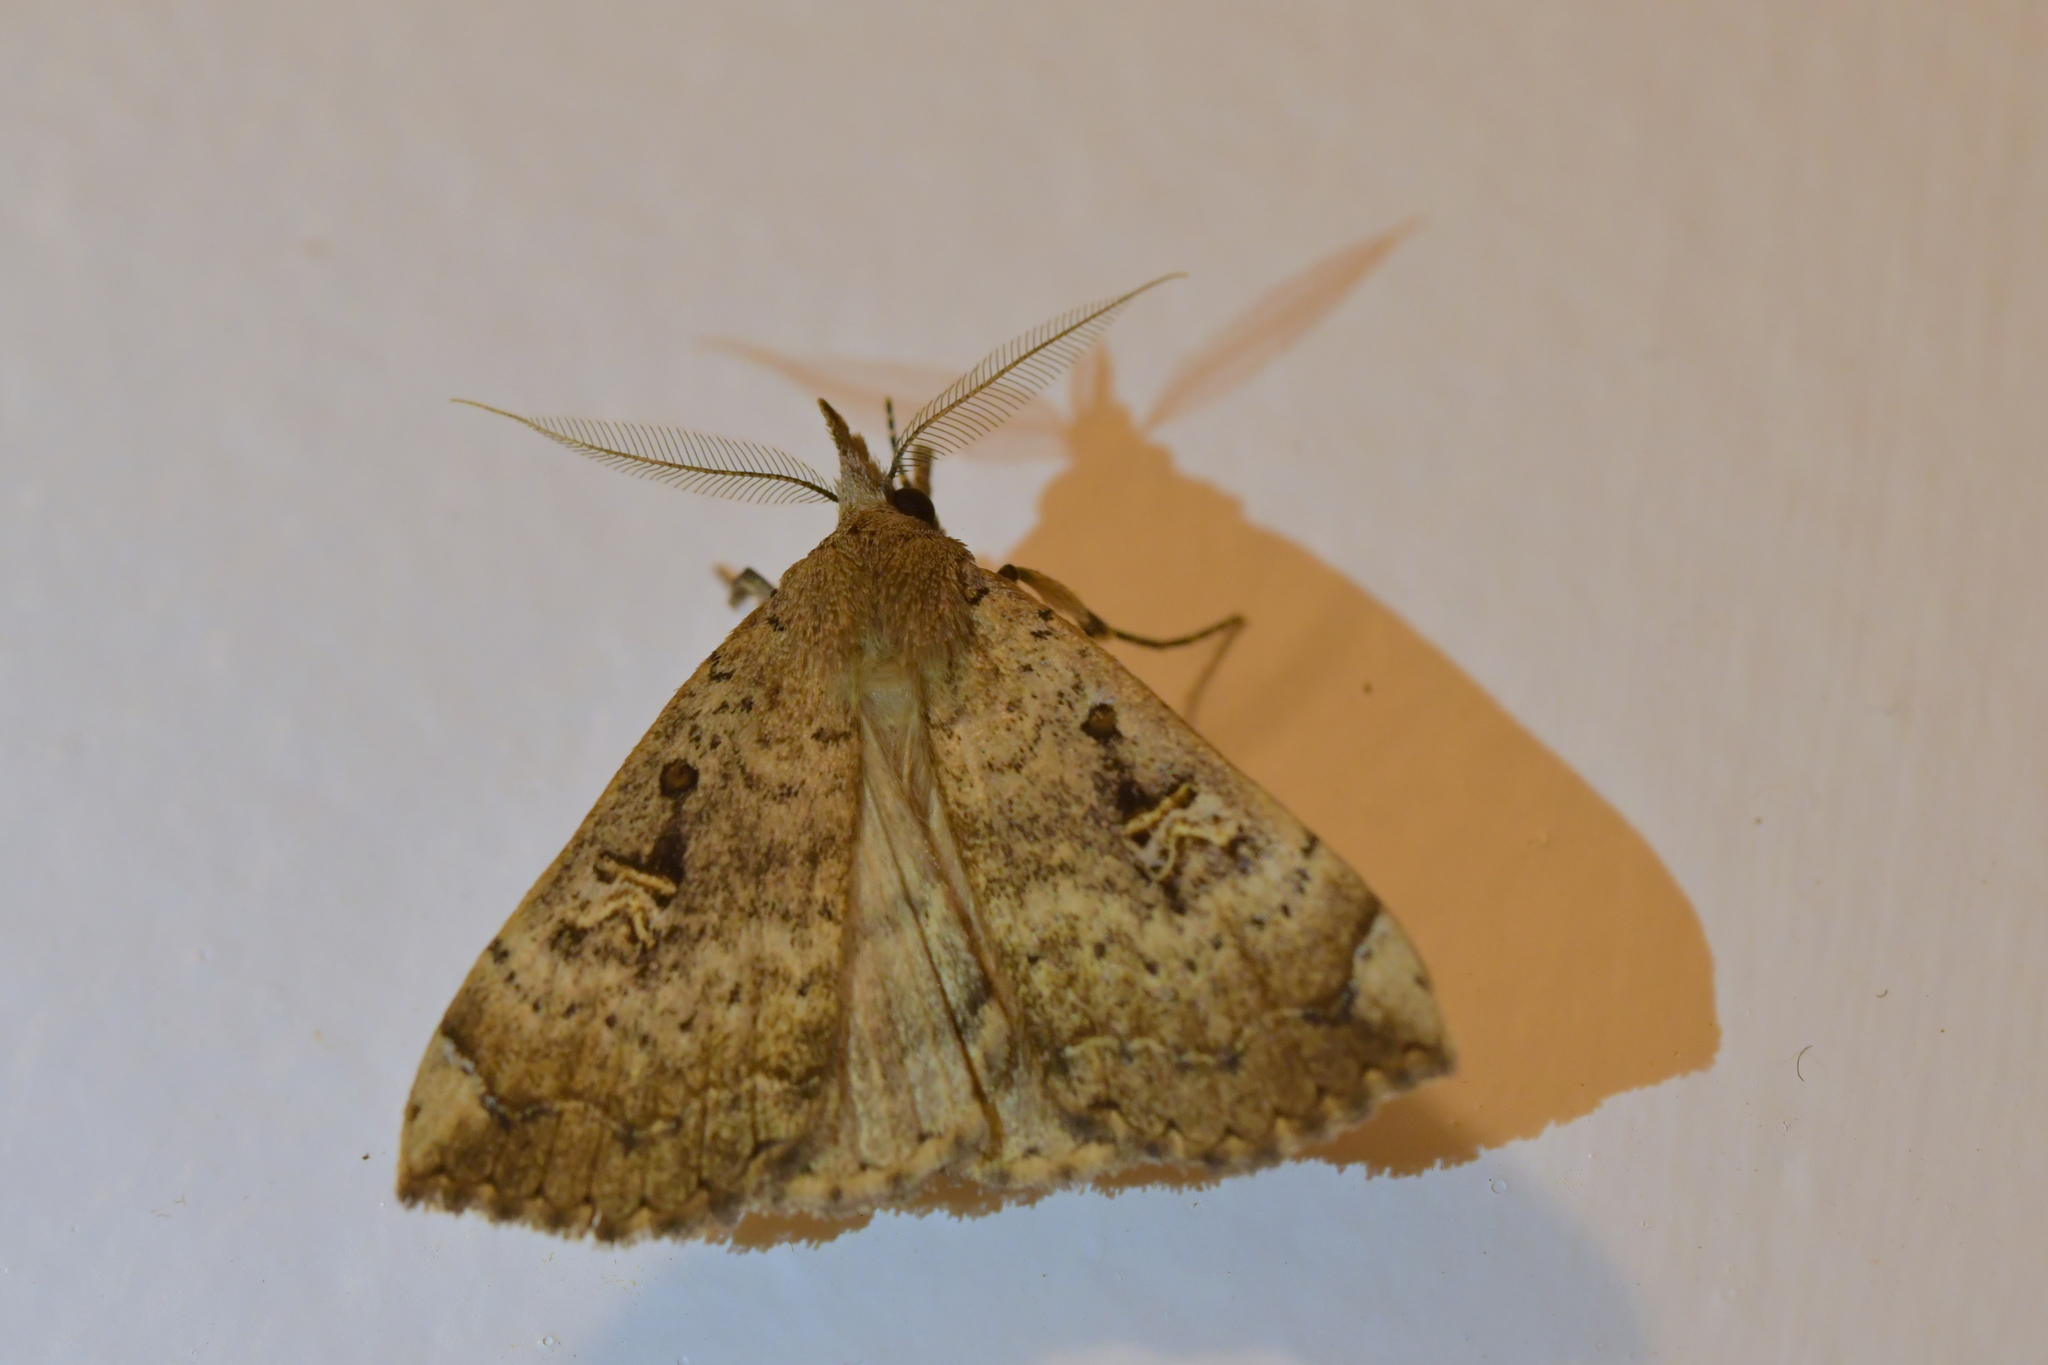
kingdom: Animalia
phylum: Arthropoda
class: Insecta
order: Lepidoptera
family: Erebidae
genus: Rhapsa
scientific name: Rhapsa scotosialis
